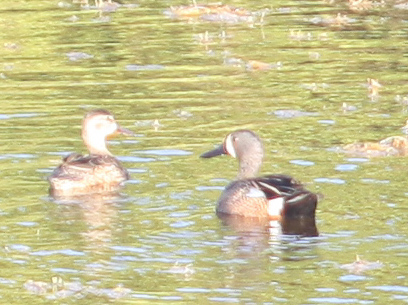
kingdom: Animalia
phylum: Chordata
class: Aves
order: Anseriformes
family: Anatidae
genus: Spatula
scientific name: Spatula discors
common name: Blue-winged teal
